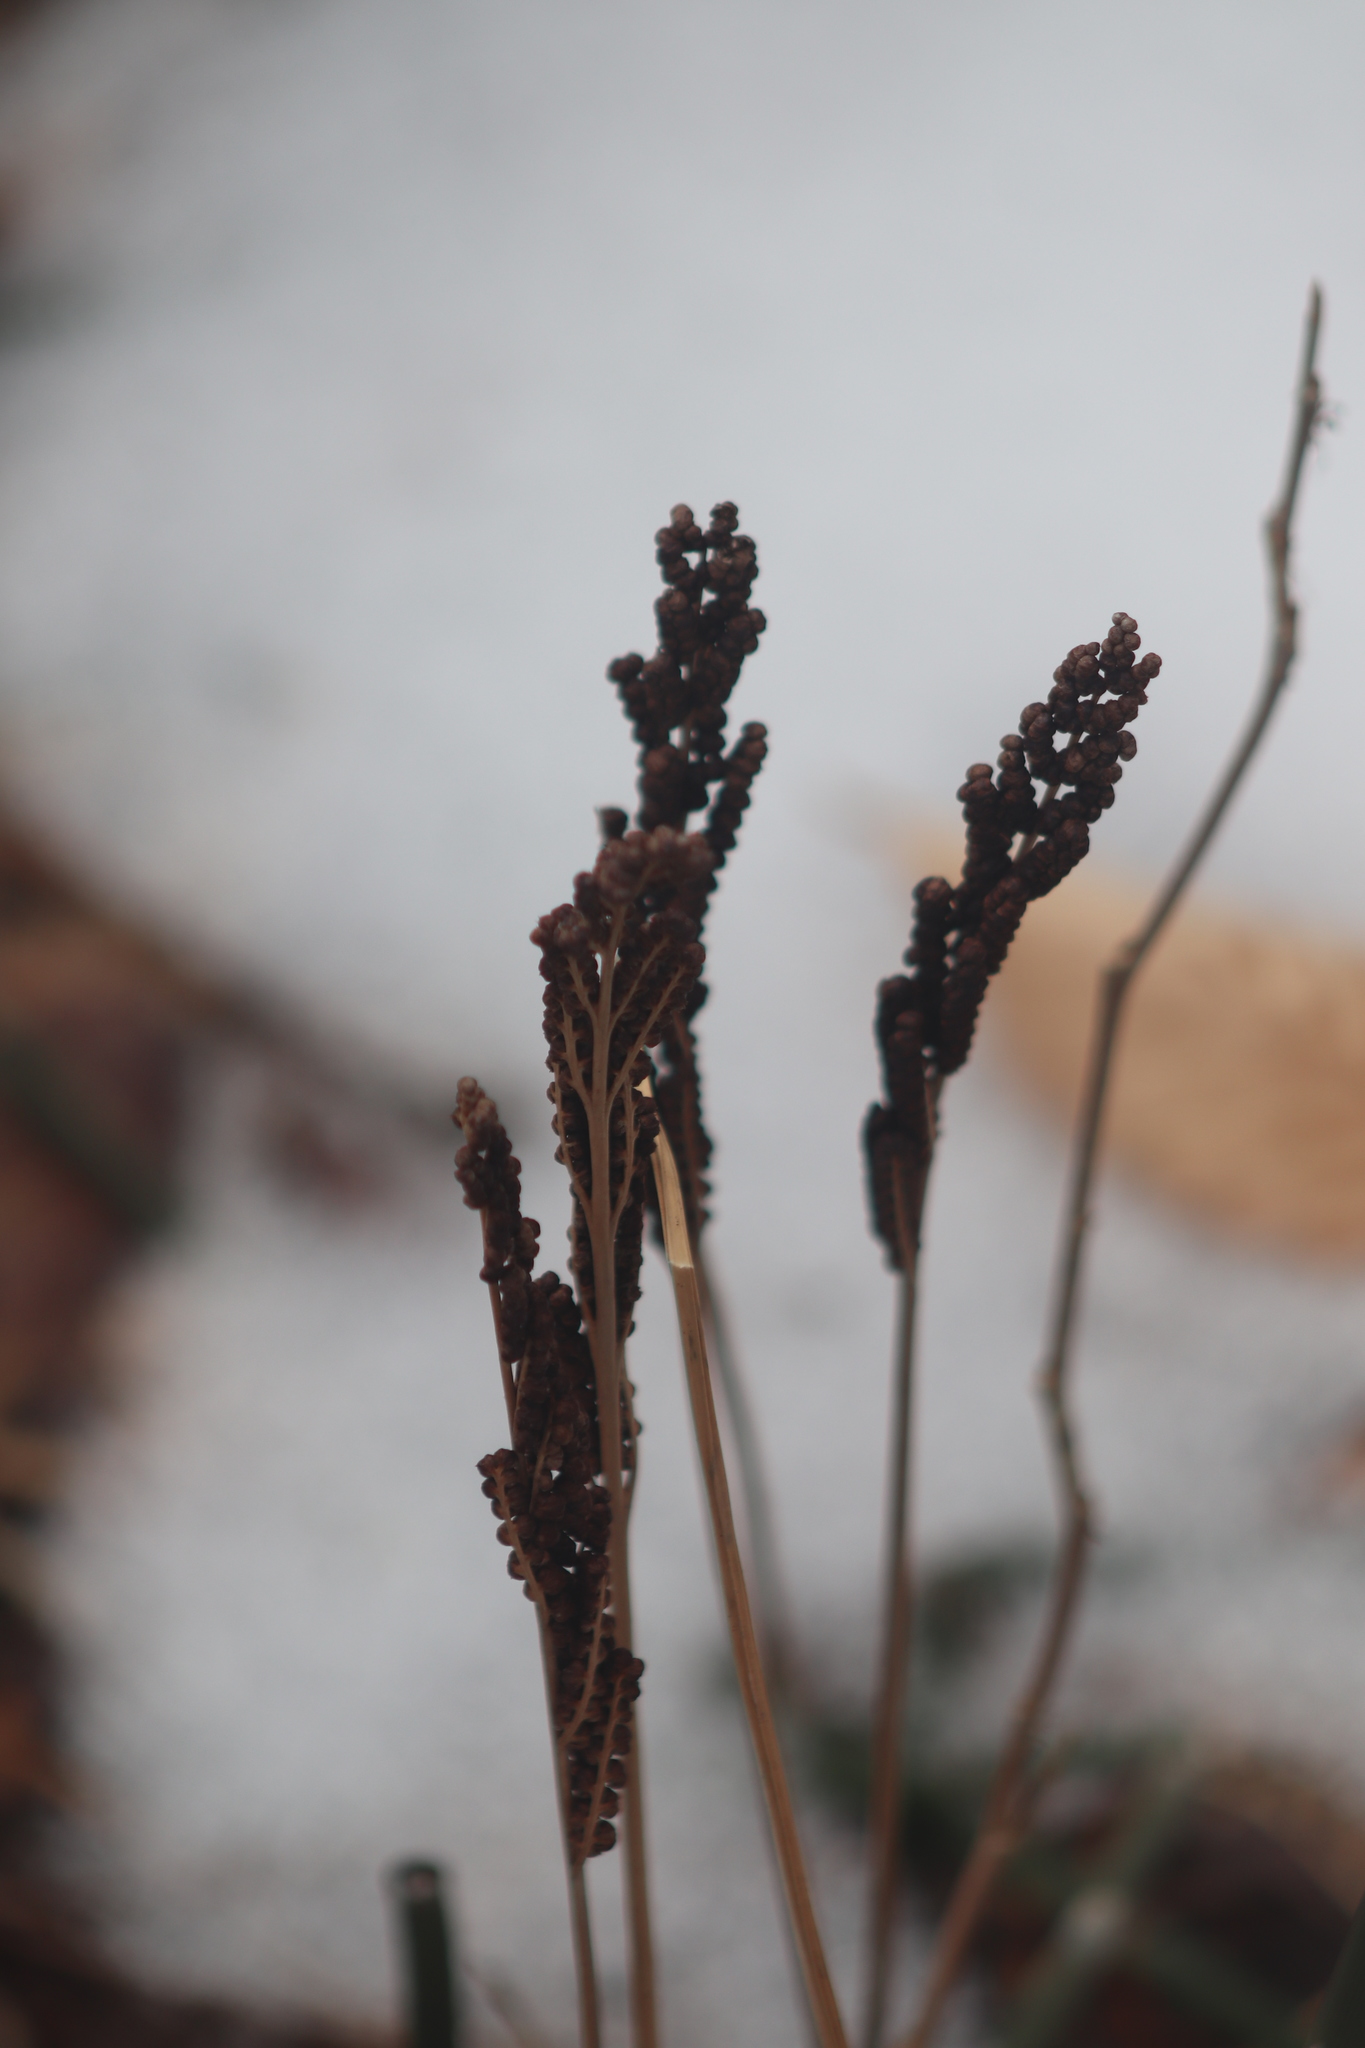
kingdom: Plantae
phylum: Tracheophyta
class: Polypodiopsida
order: Polypodiales
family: Onocleaceae
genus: Onoclea
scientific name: Onoclea sensibilis
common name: Sensitive fern
